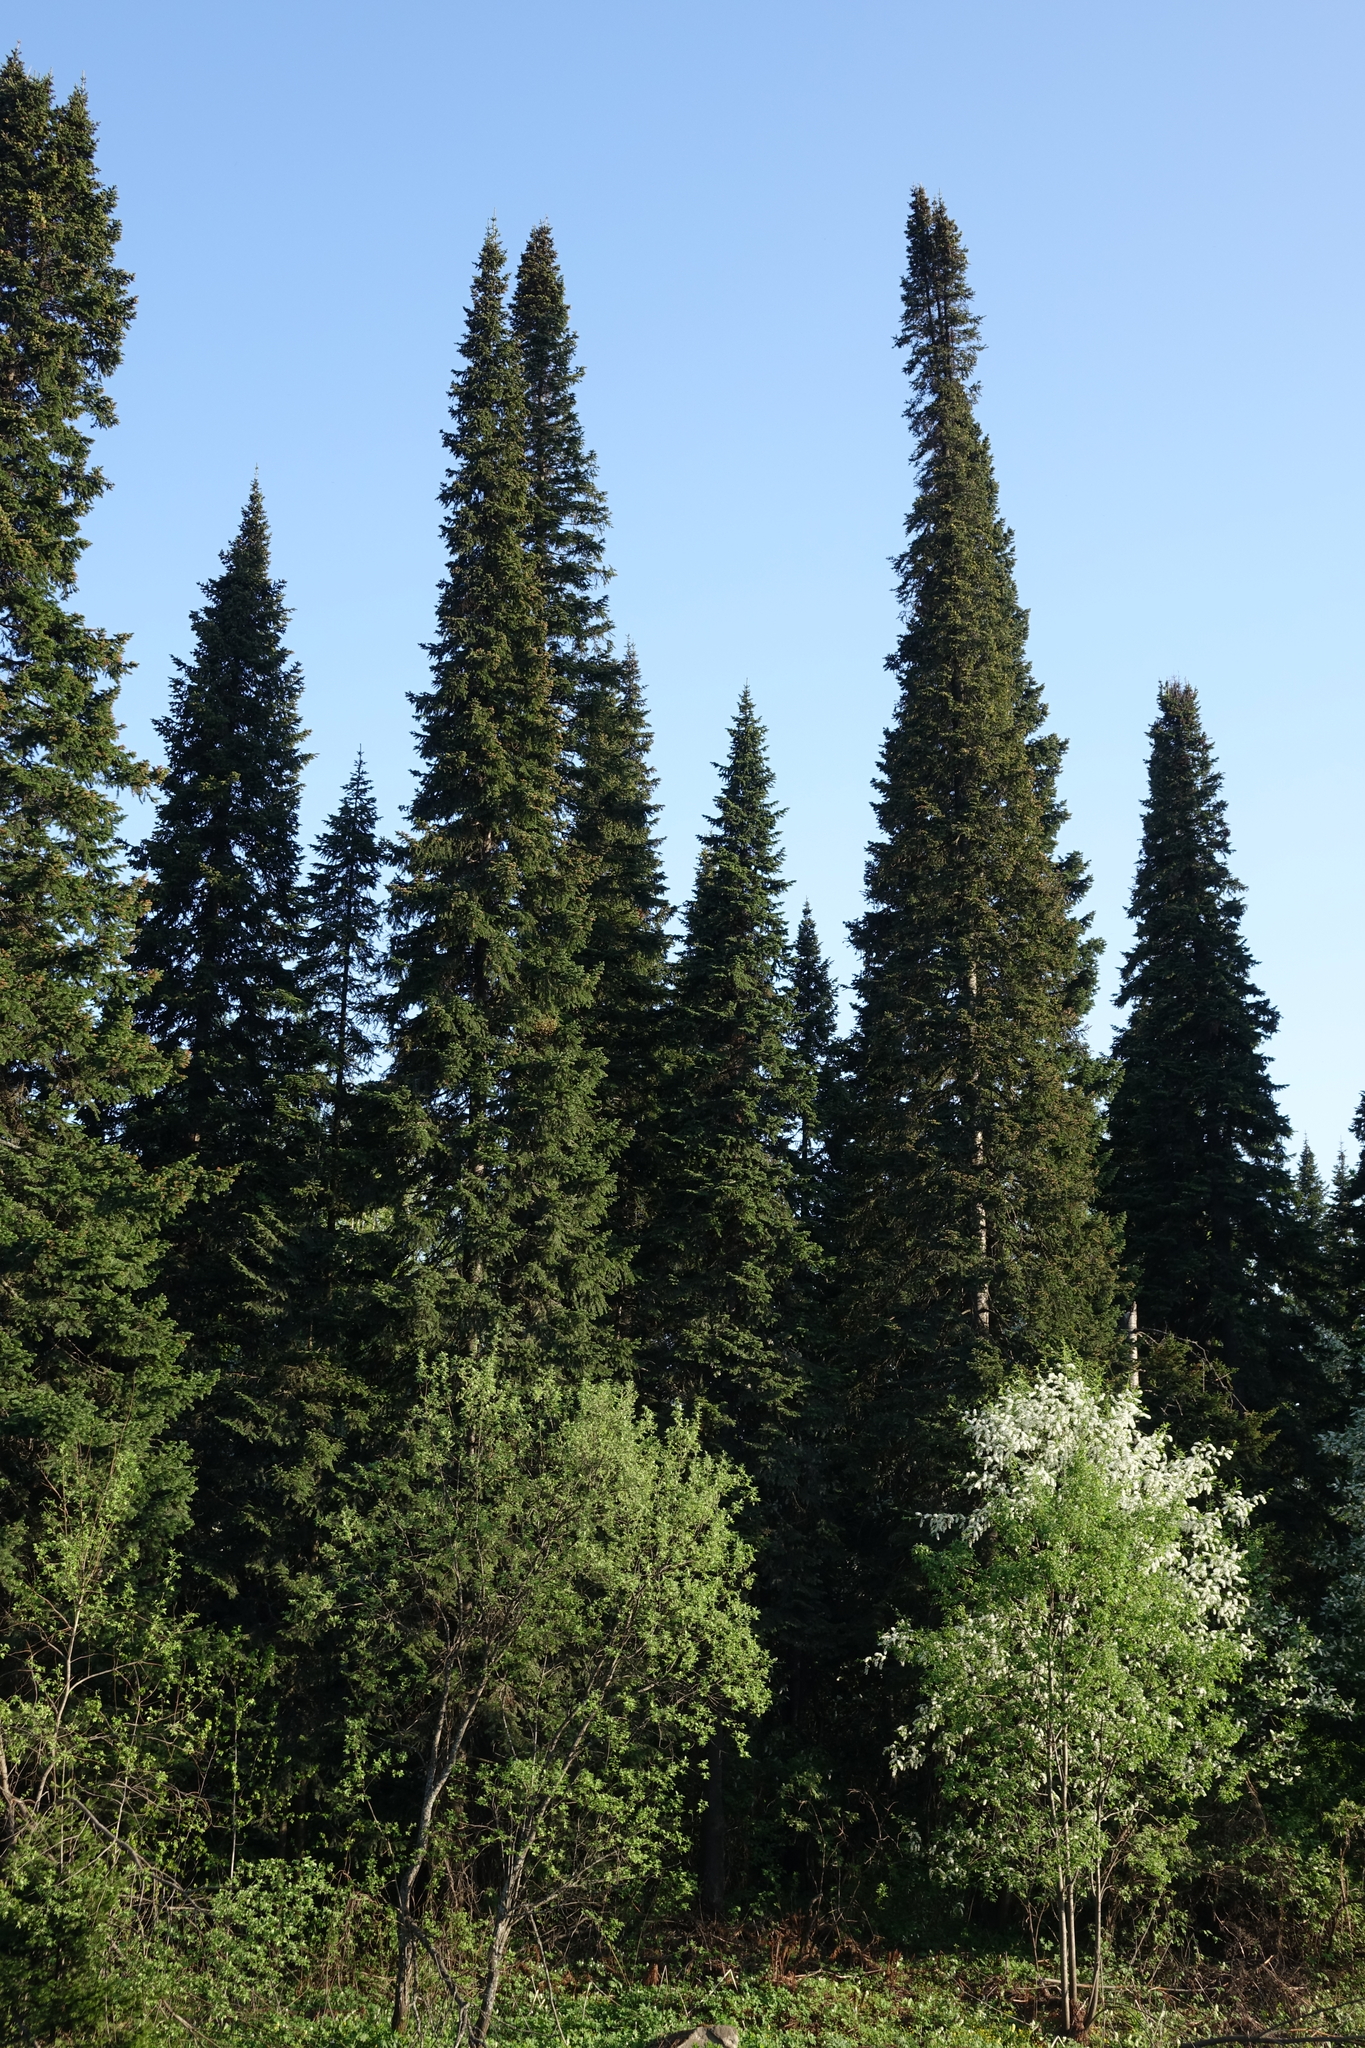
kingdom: Plantae
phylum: Tracheophyta
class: Pinopsida
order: Pinales
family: Pinaceae
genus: Abies
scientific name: Abies sibirica
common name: Siberian fir
